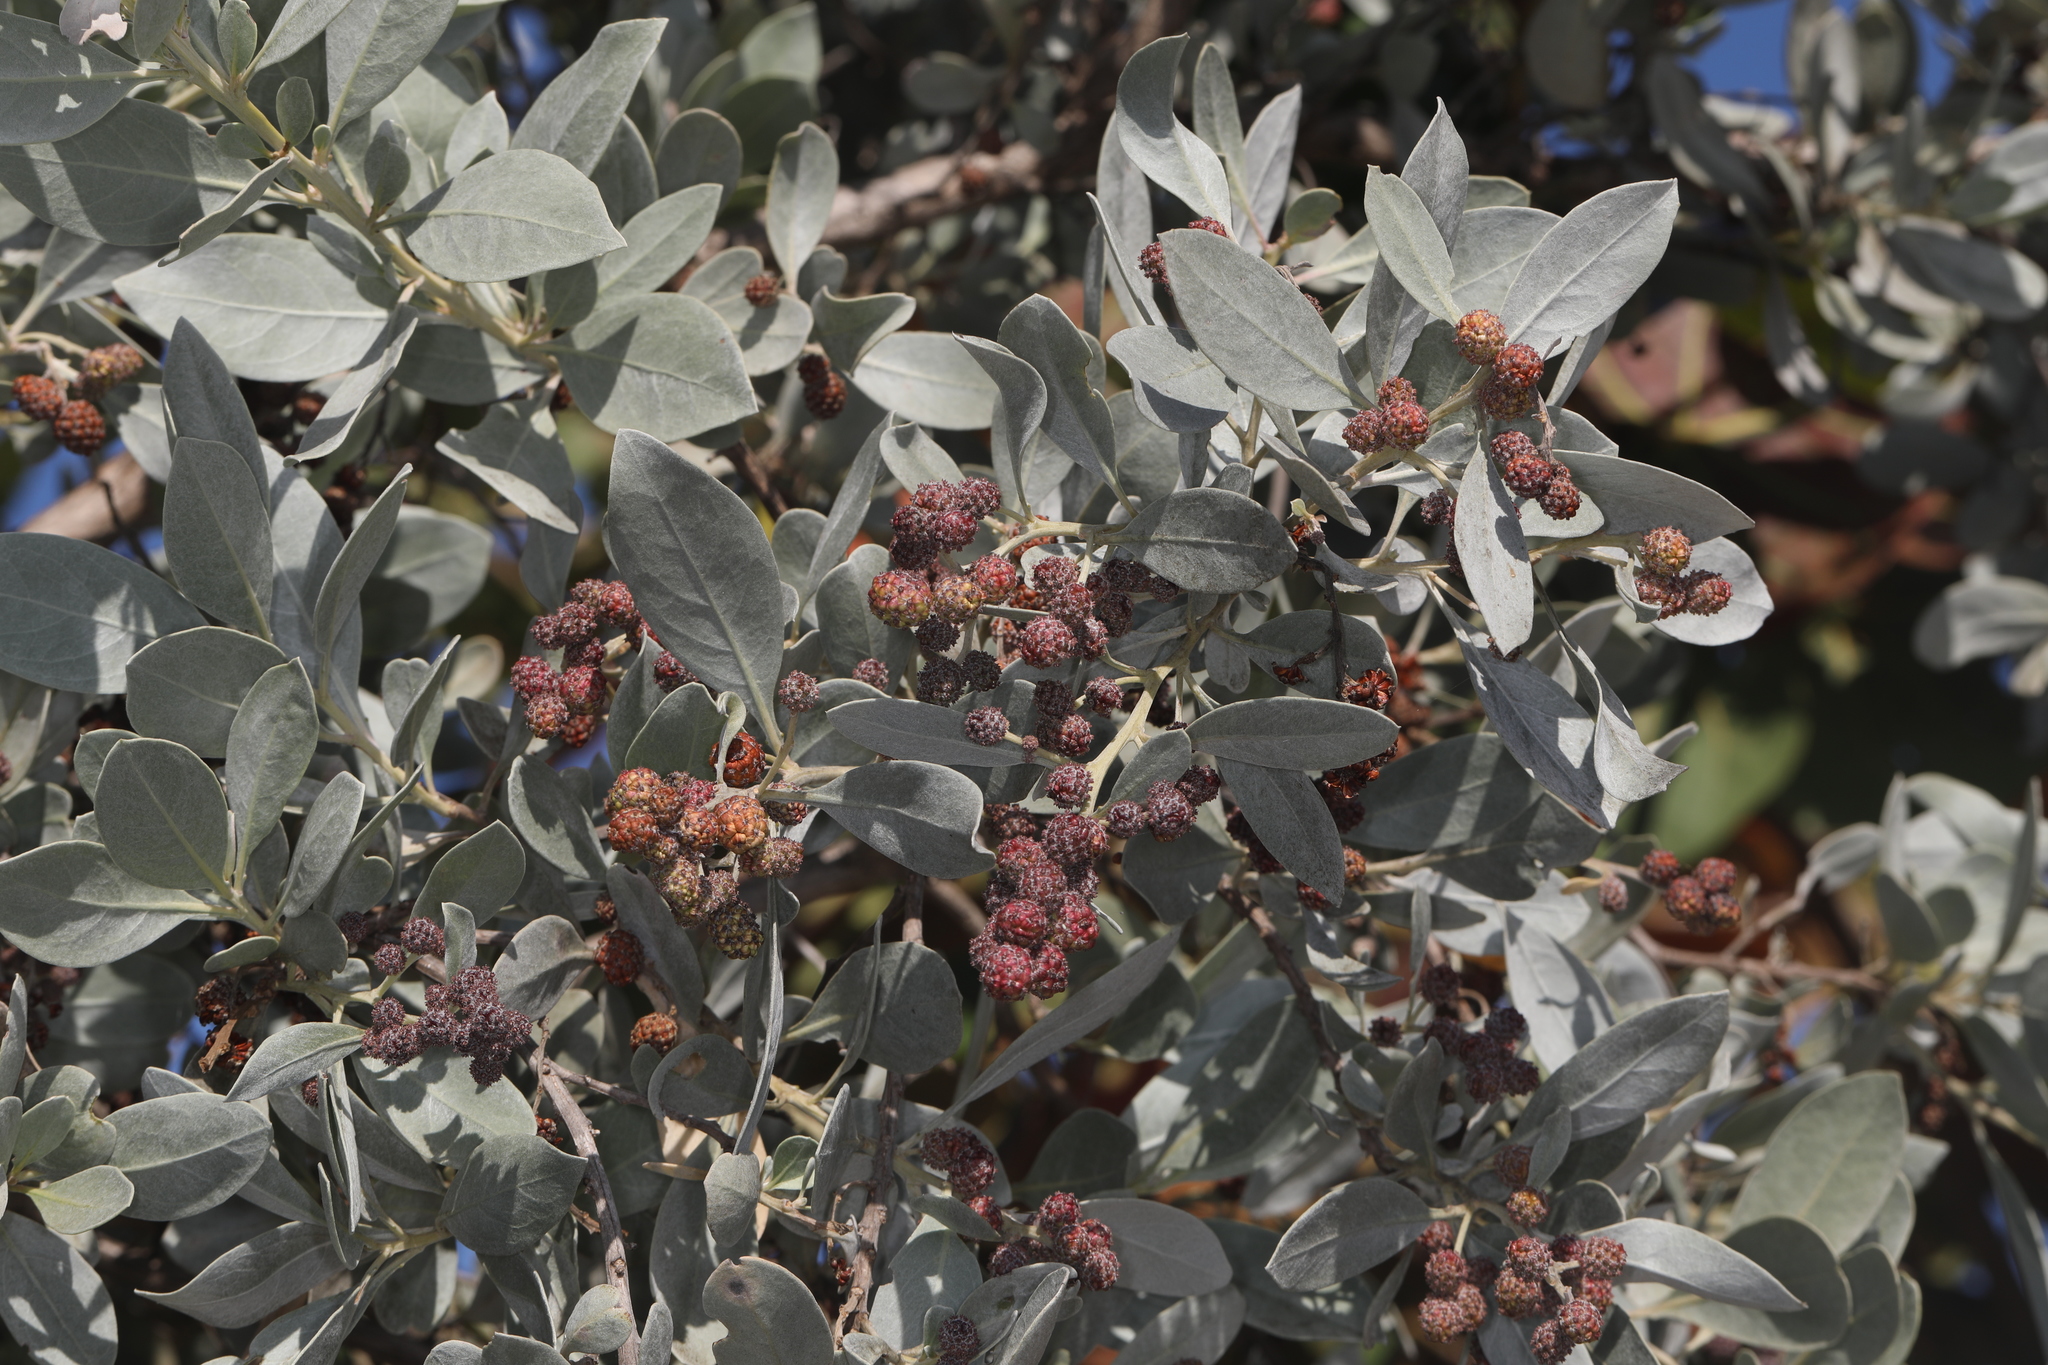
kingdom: Plantae
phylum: Tracheophyta
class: Magnoliopsida
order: Myrtales
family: Combretaceae
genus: Conocarpus
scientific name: Conocarpus erectus
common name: Button mangrove
